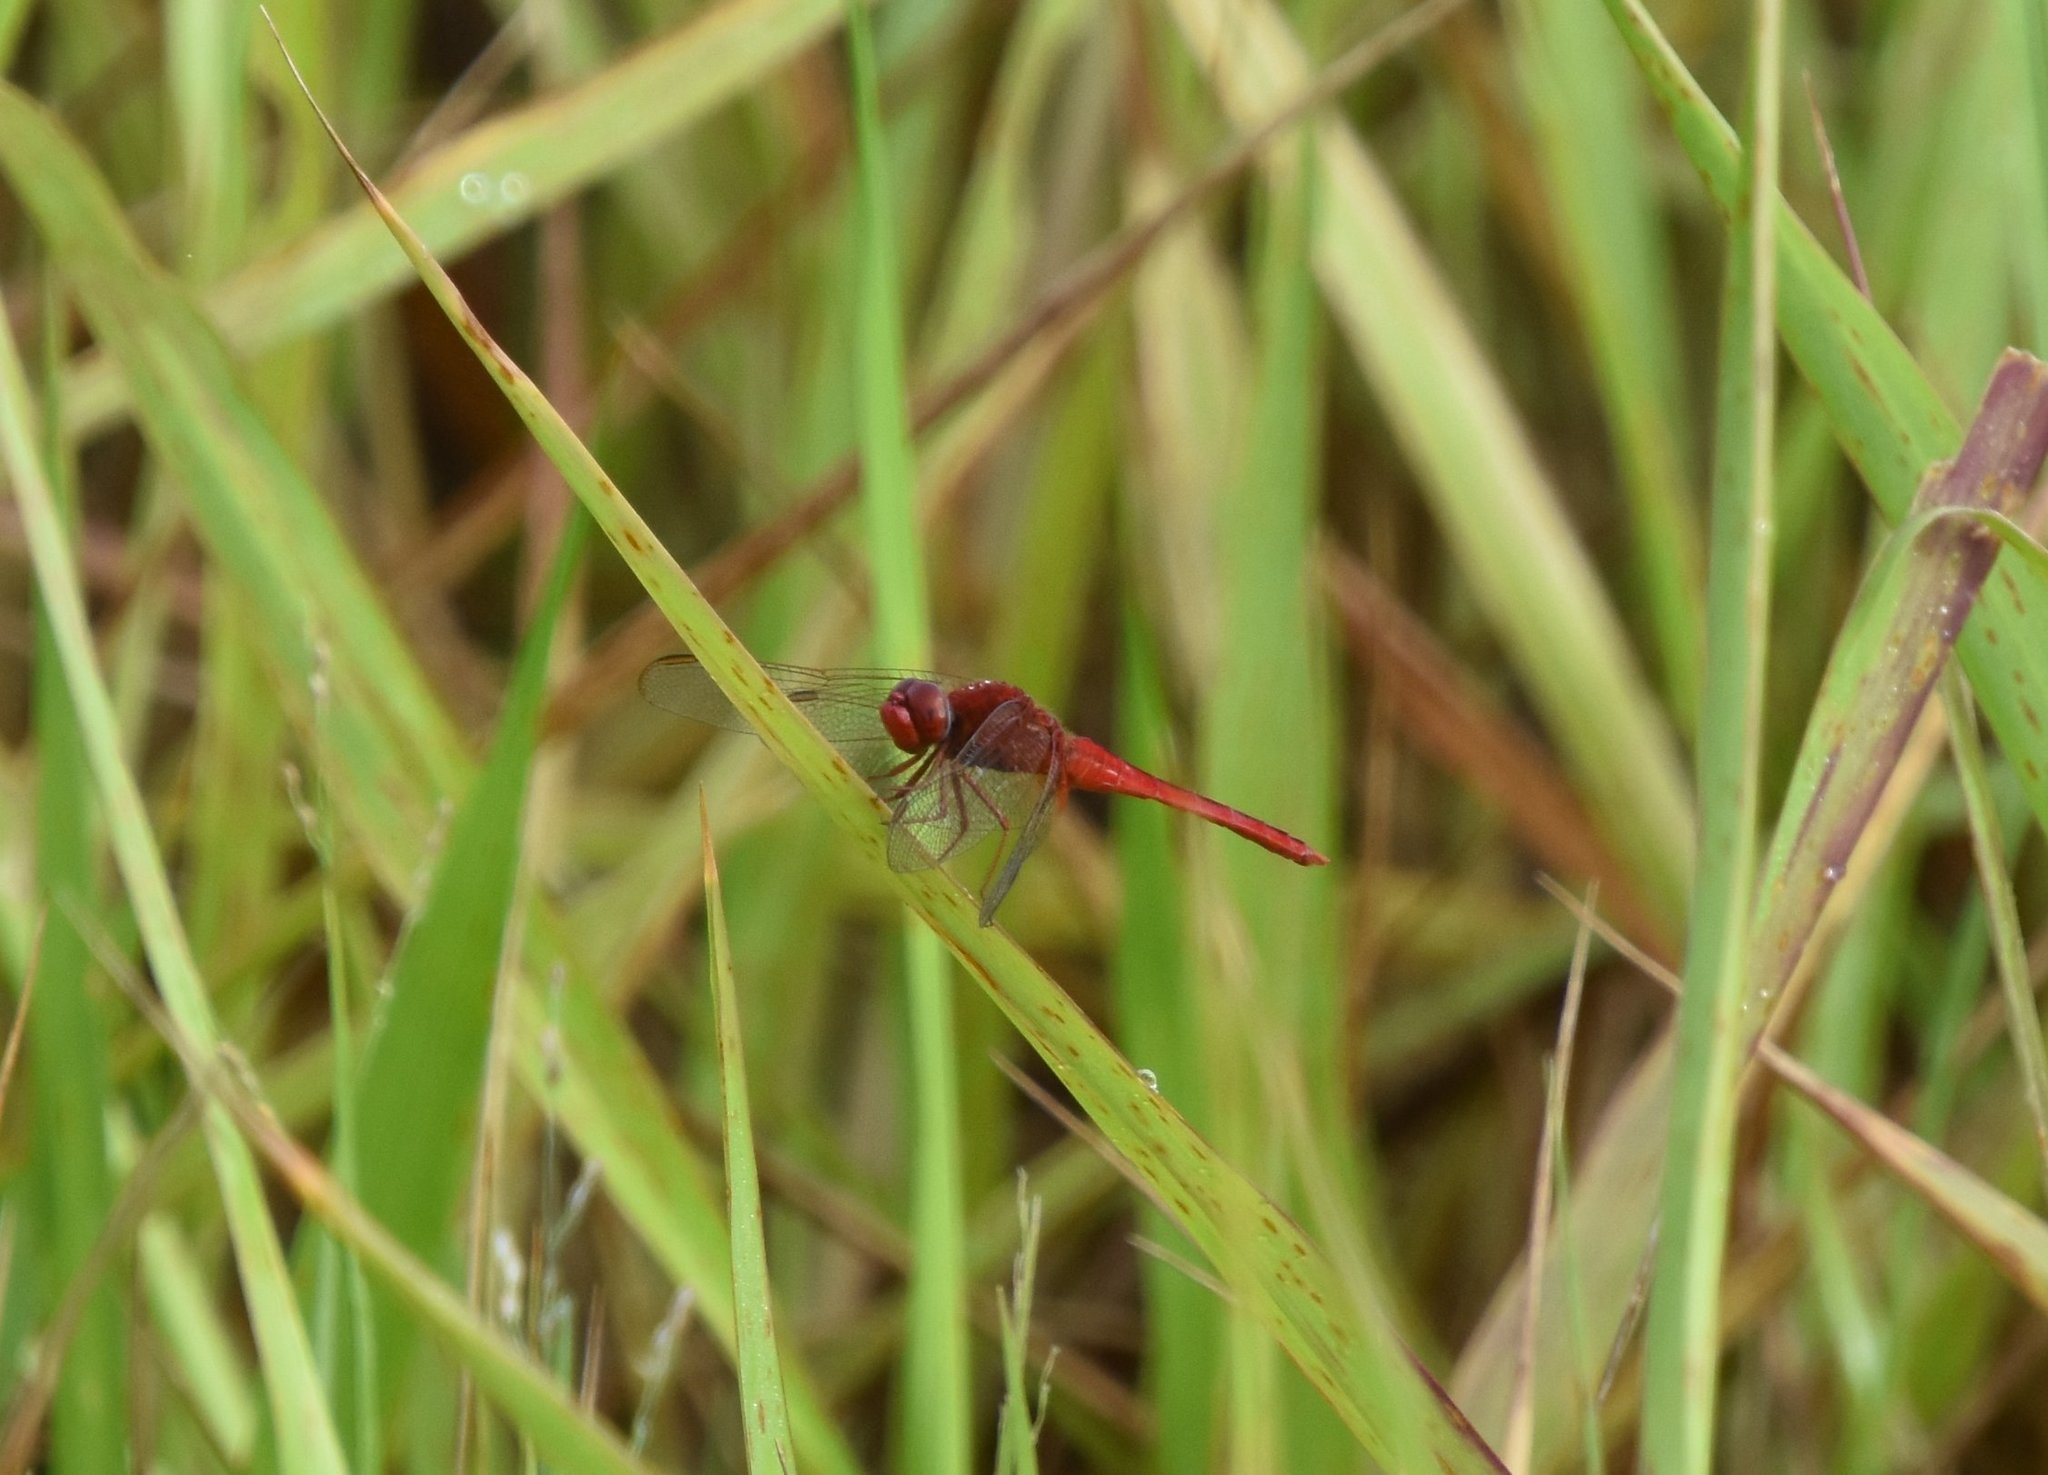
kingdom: Animalia
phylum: Arthropoda
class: Insecta
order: Odonata
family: Libellulidae
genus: Crocothemis
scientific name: Crocothemis servilia
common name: Scarlet skimmer
